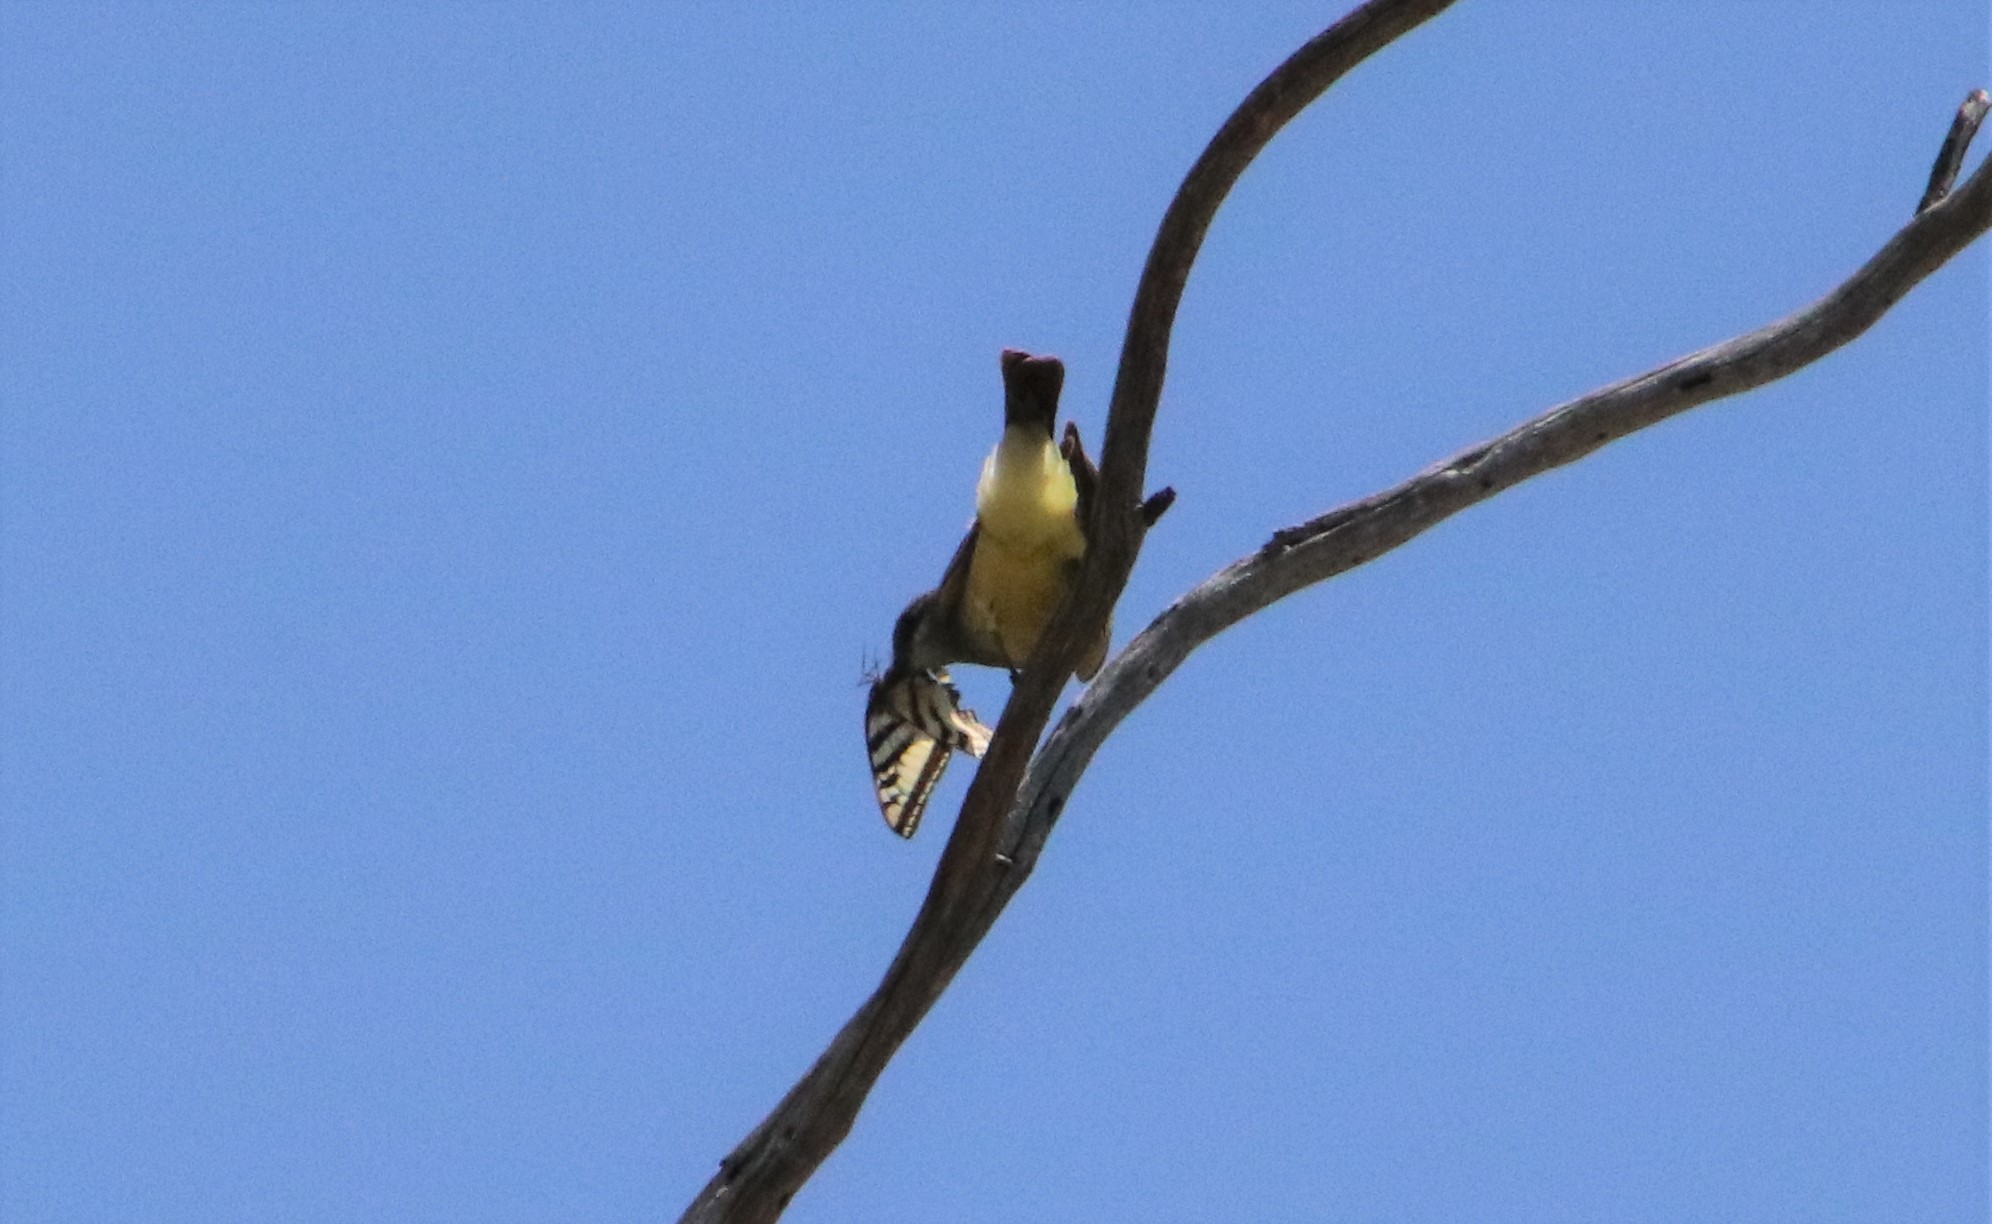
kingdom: Animalia
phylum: Arthropoda
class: Insecta
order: Lepidoptera
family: Papilionidae
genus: Papilio
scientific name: Papilio rutulus
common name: Western tiger swallowtail
